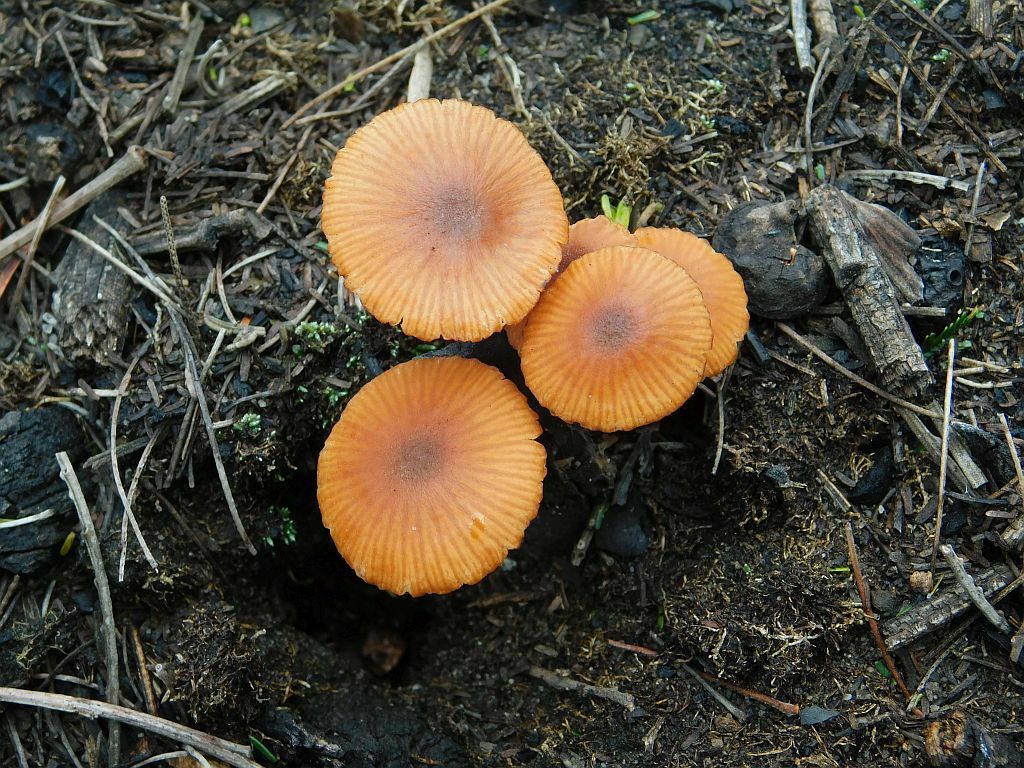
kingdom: Fungi
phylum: Basidiomycota
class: Agaricomycetes
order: Agaricales
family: Hydnangiaceae
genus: Laccaria
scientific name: Laccaria laccata
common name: Deceiver
